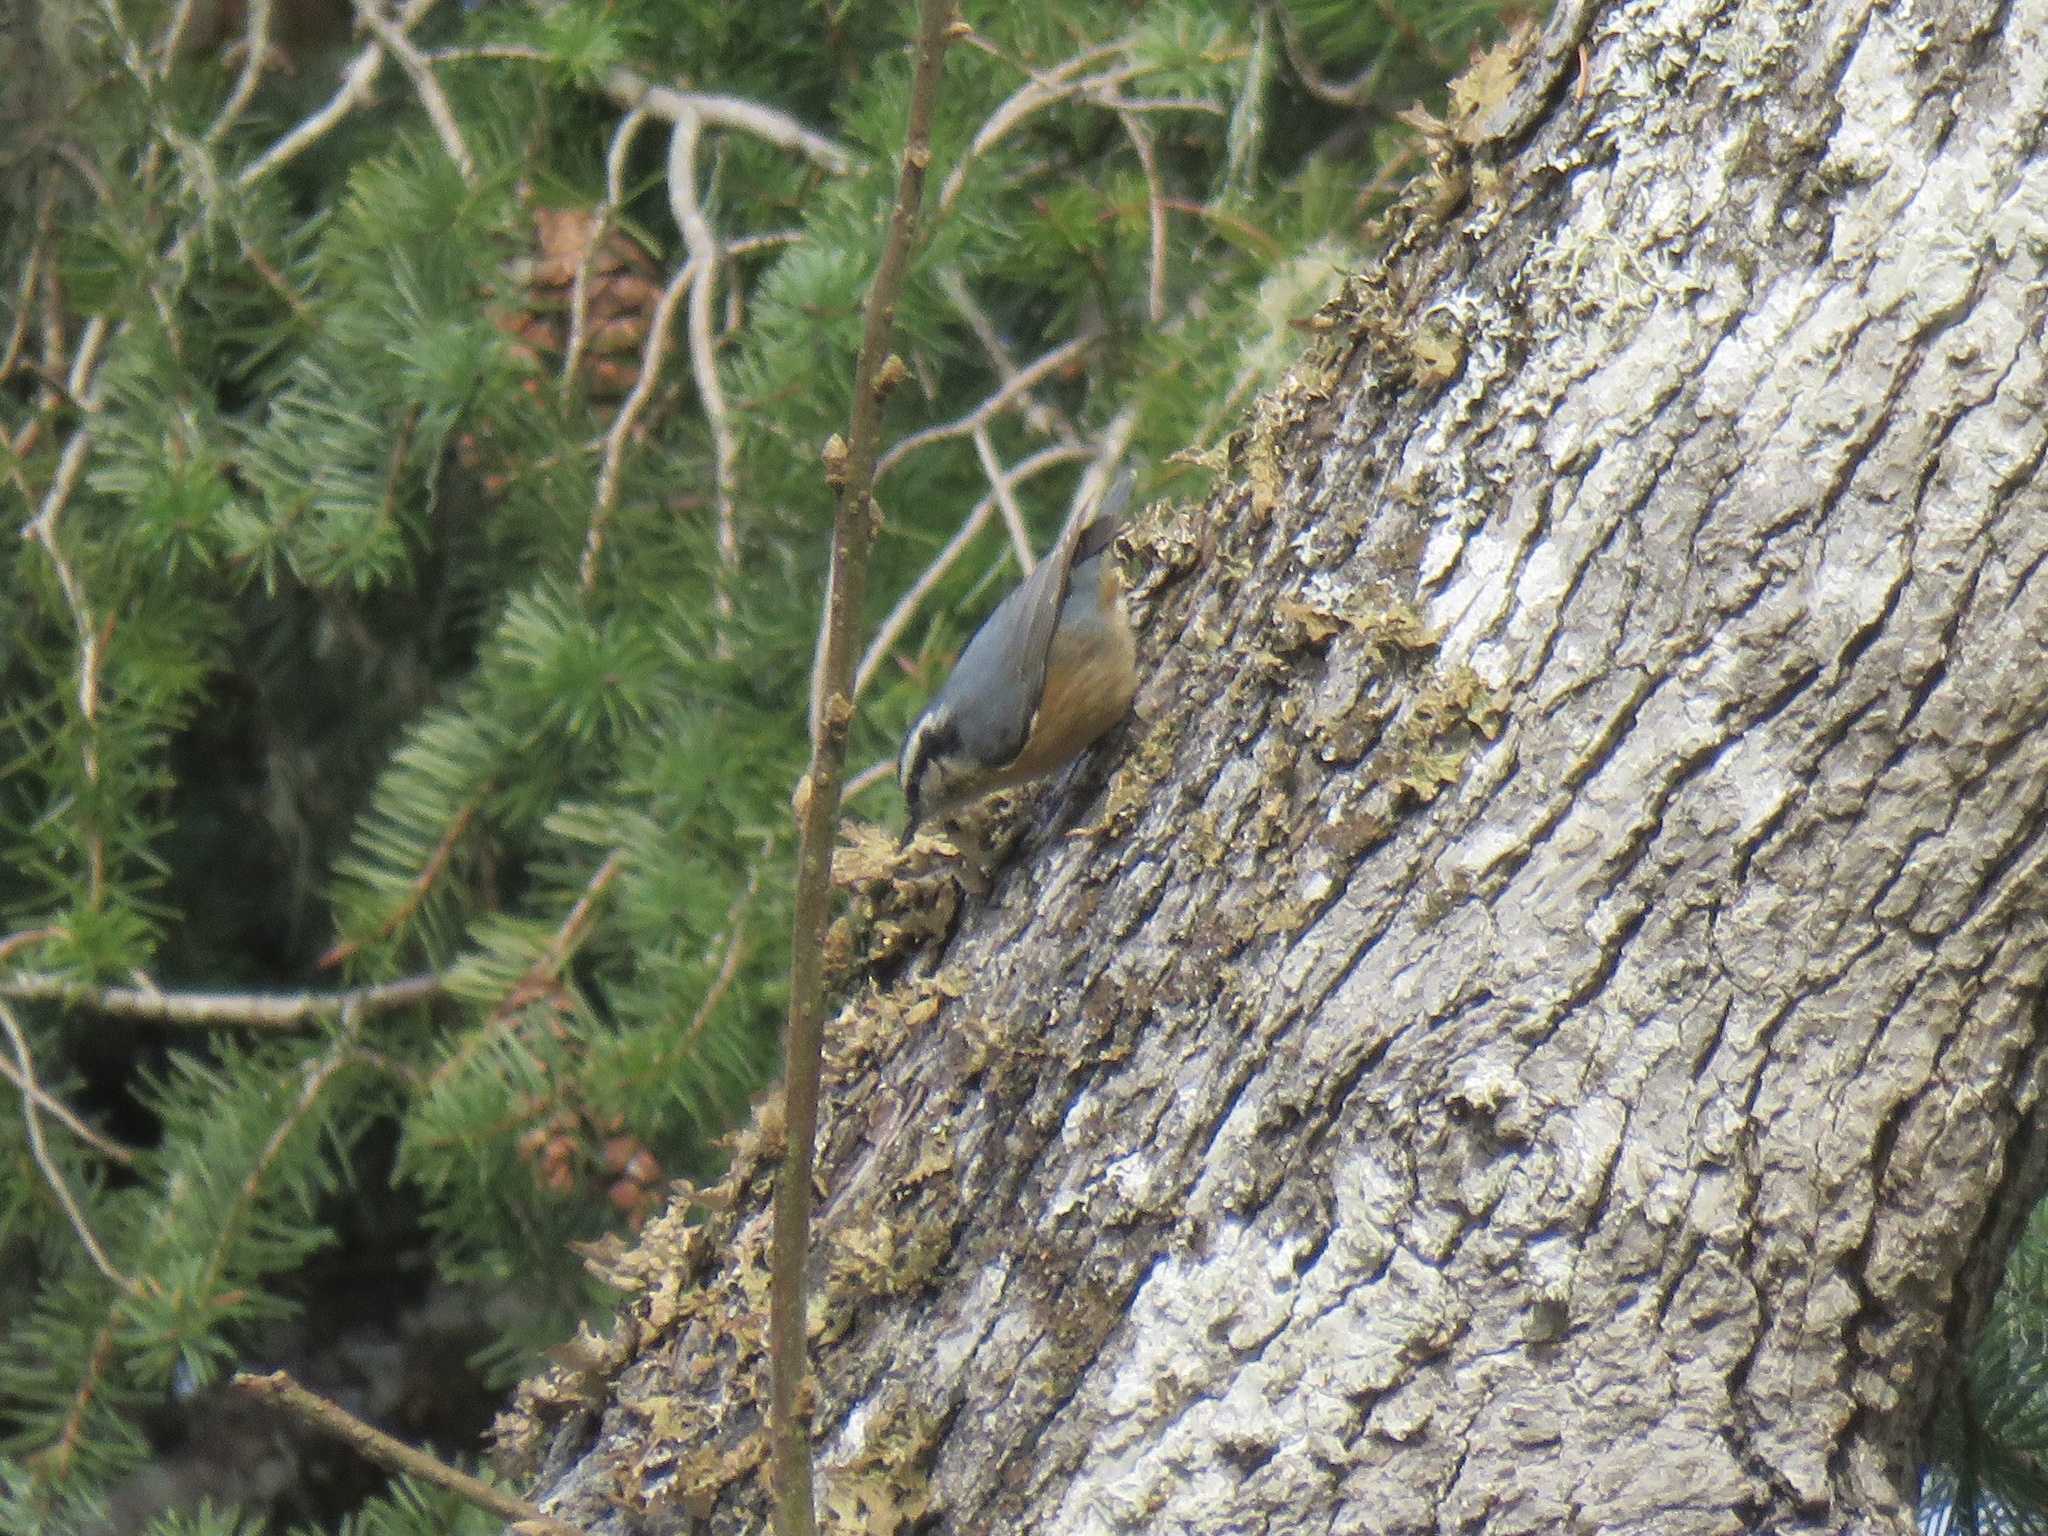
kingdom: Animalia
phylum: Chordata
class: Aves
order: Passeriformes
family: Sittidae
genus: Sitta
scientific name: Sitta canadensis
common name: Red-breasted nuthatch
